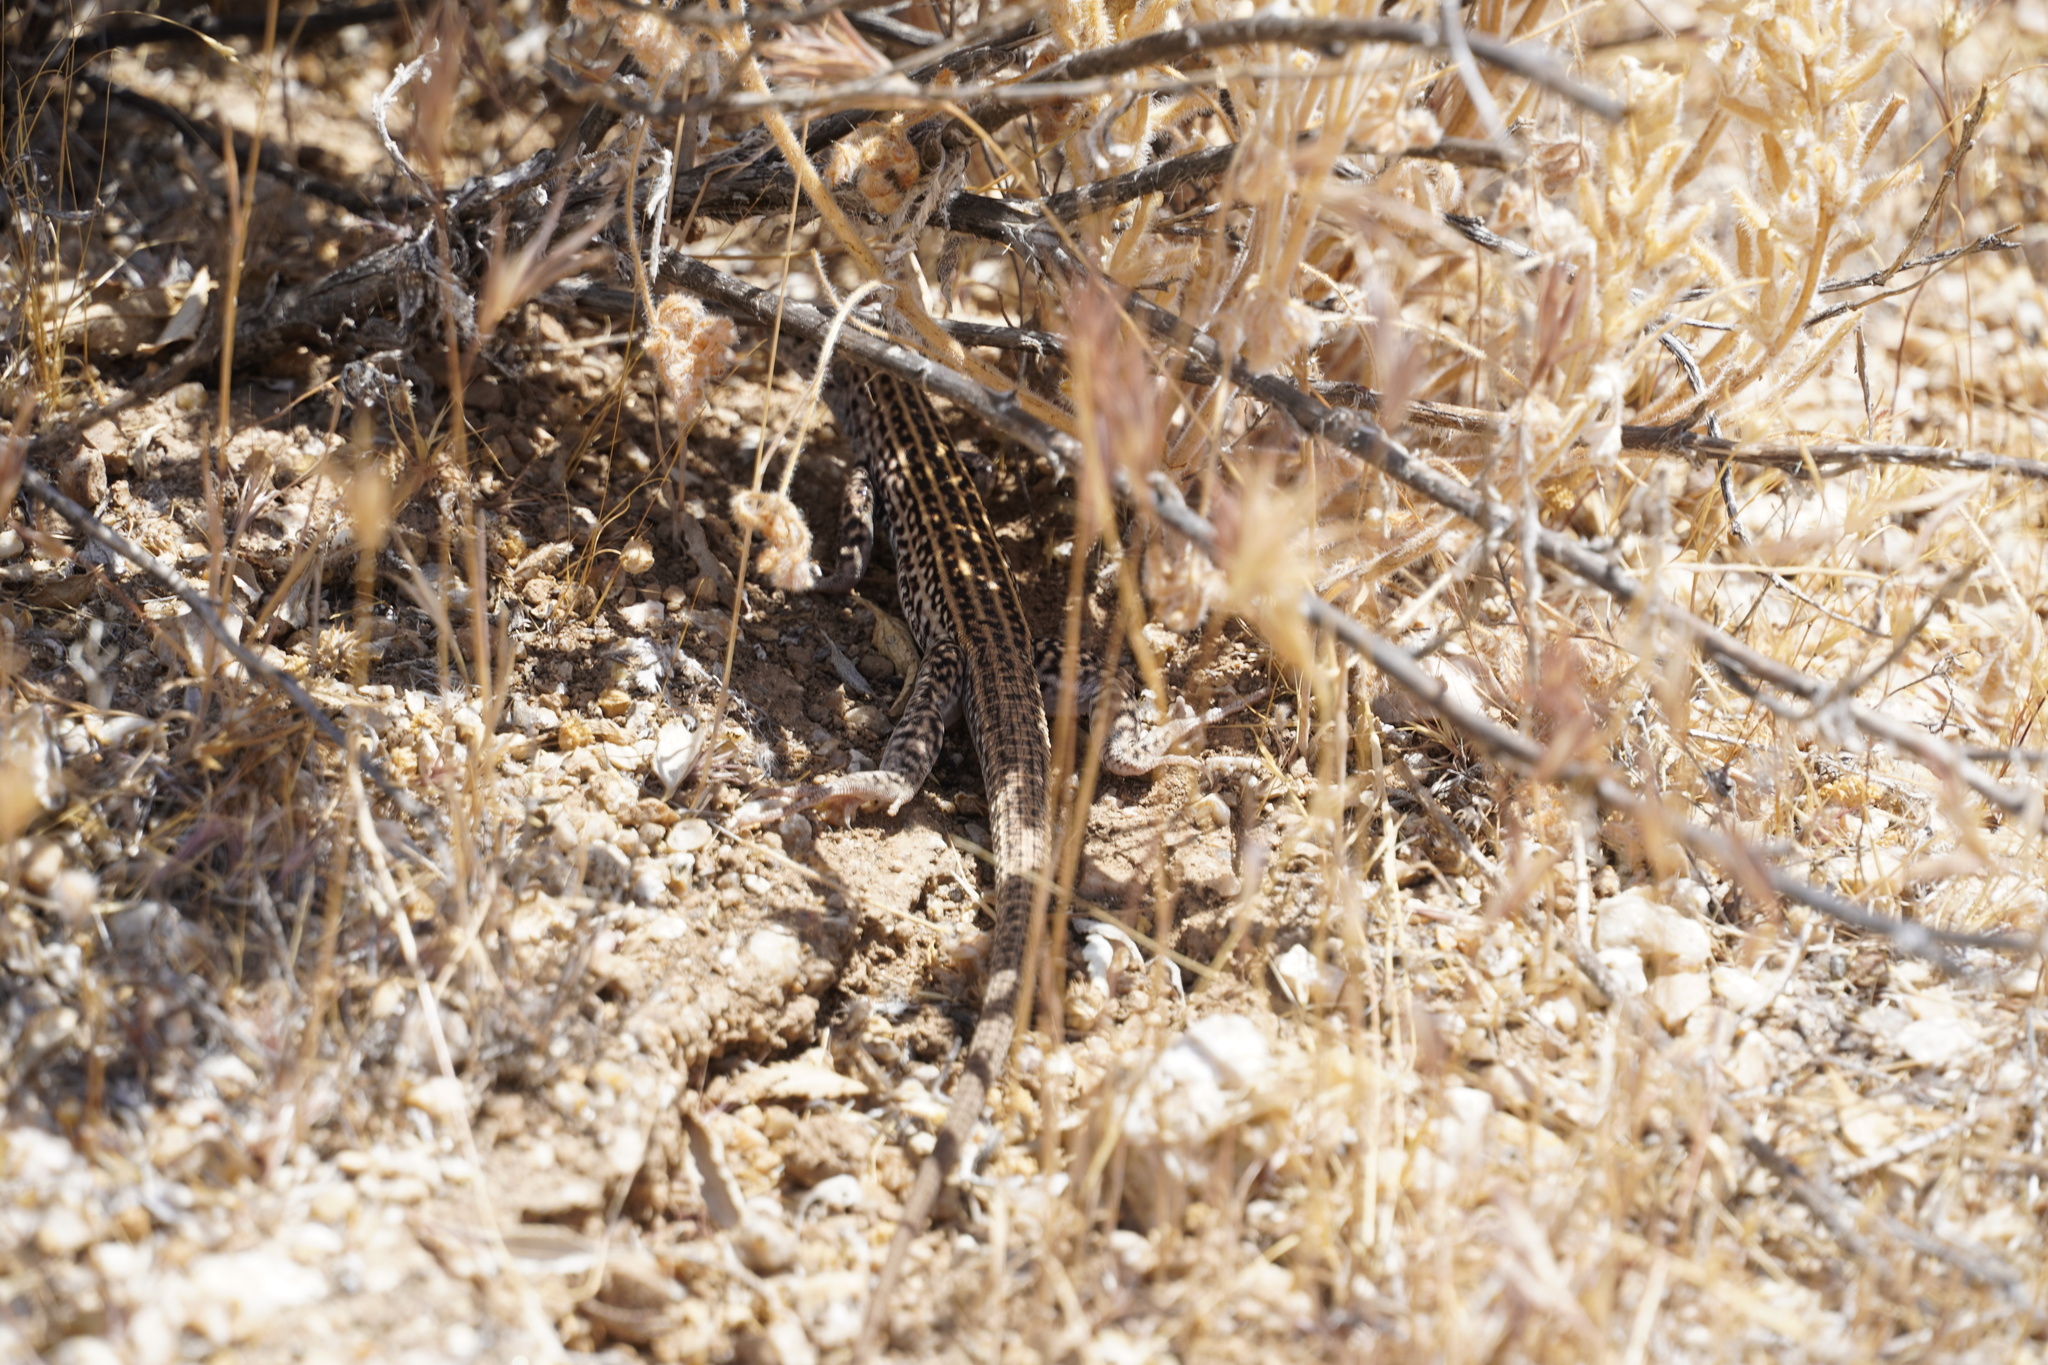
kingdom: Animalia
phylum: Chordata
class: Squamata
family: Teiidae
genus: Aspidoscelis
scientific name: Aspidoscelis tigris
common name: Tiger whiptail
